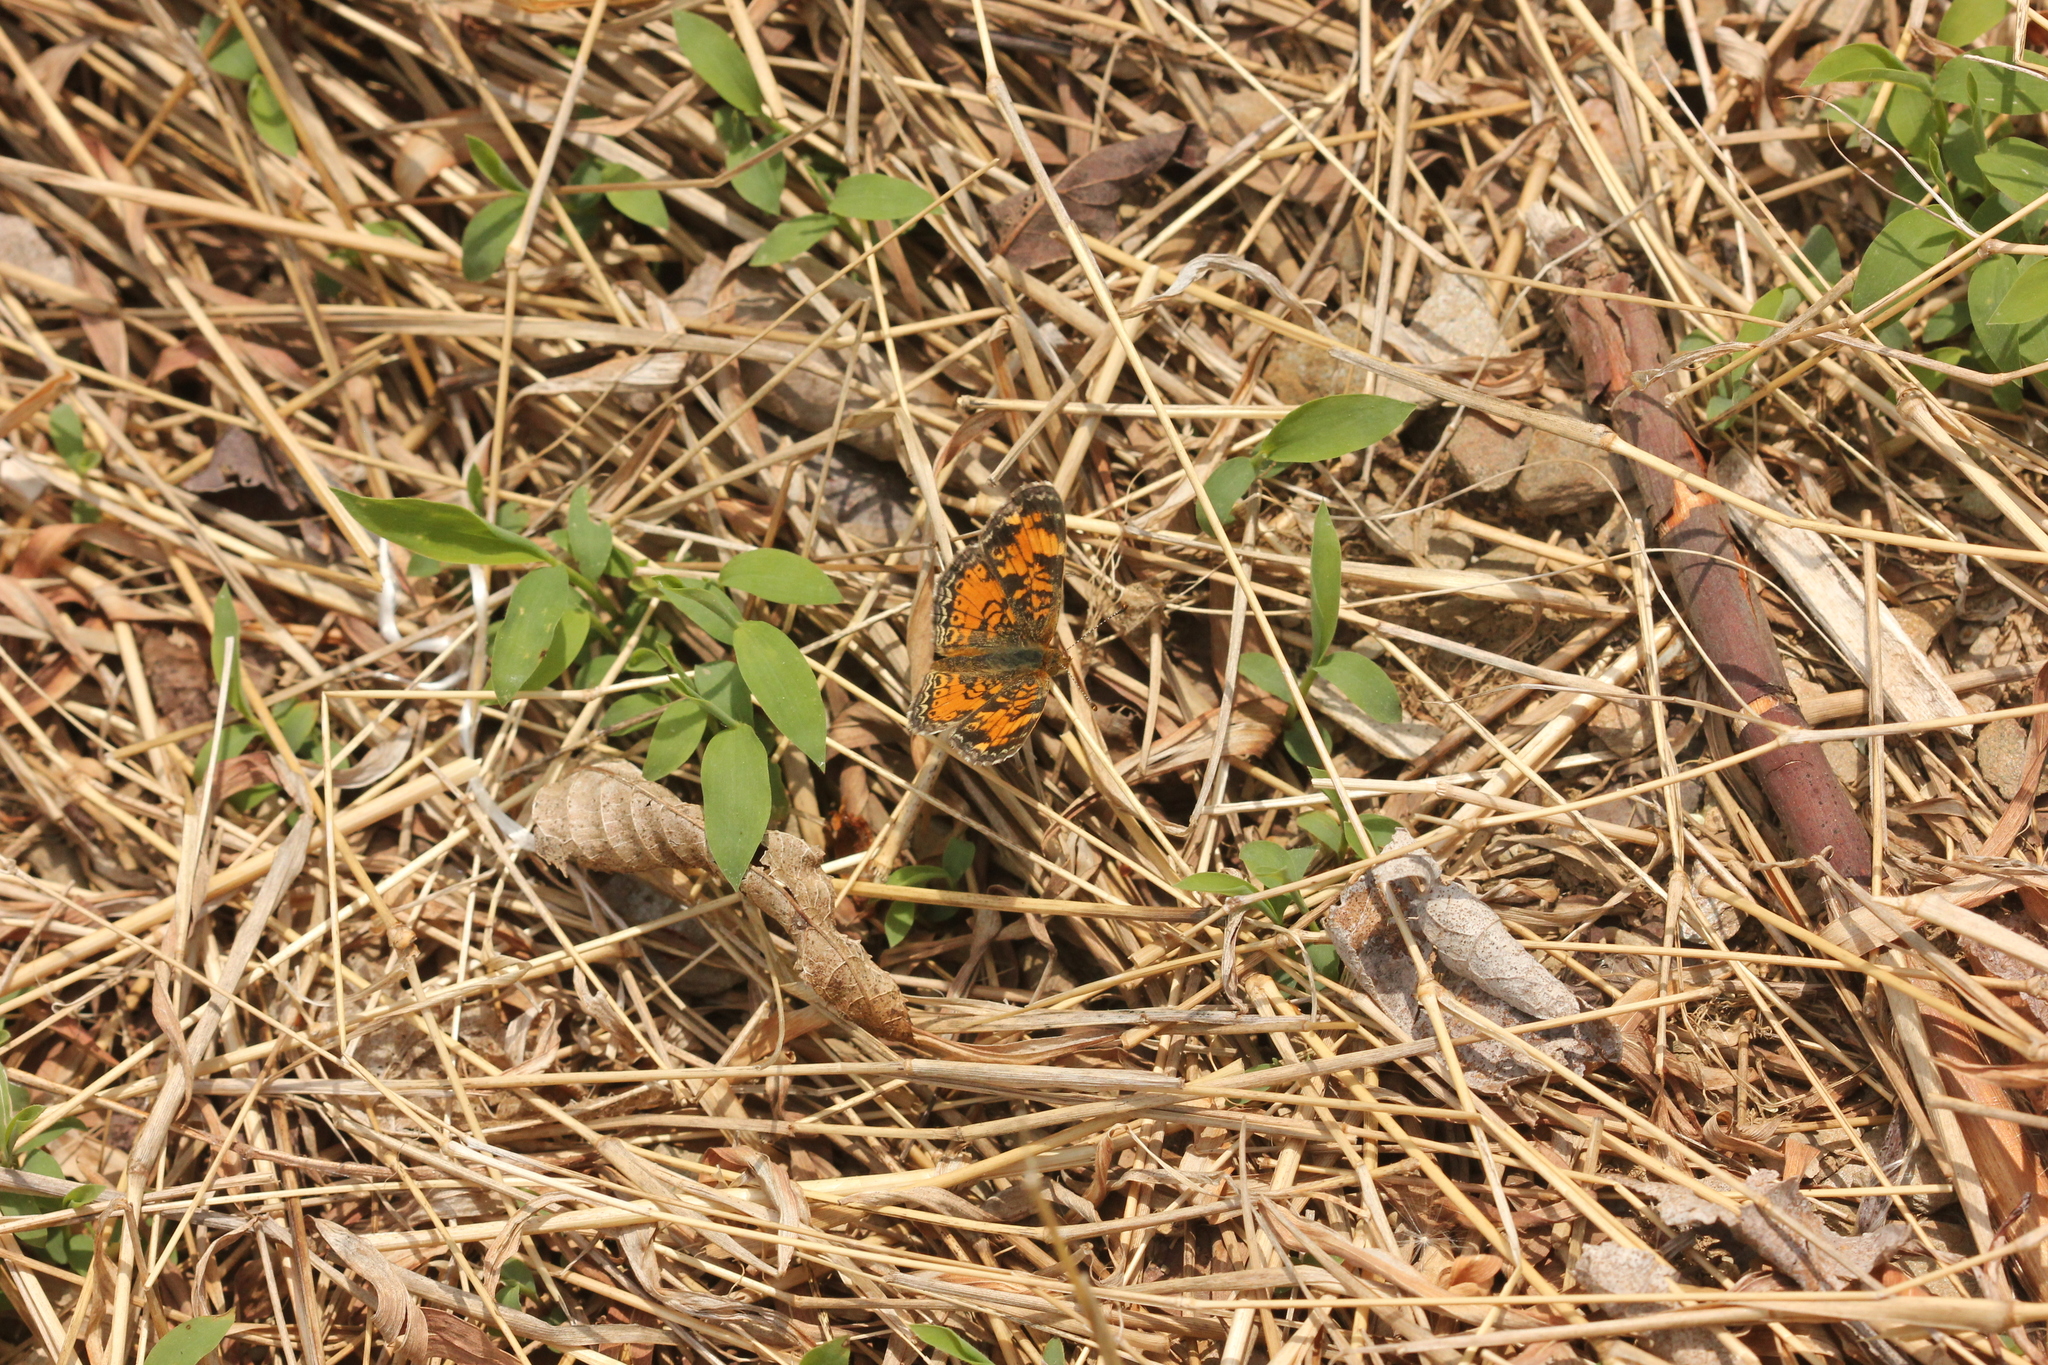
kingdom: Animalia
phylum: Arthropoda
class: Insecta
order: Lepidoptera
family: Nymphalidae
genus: Phyciodes
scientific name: Phyciodes tharos
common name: Pearl crescent
